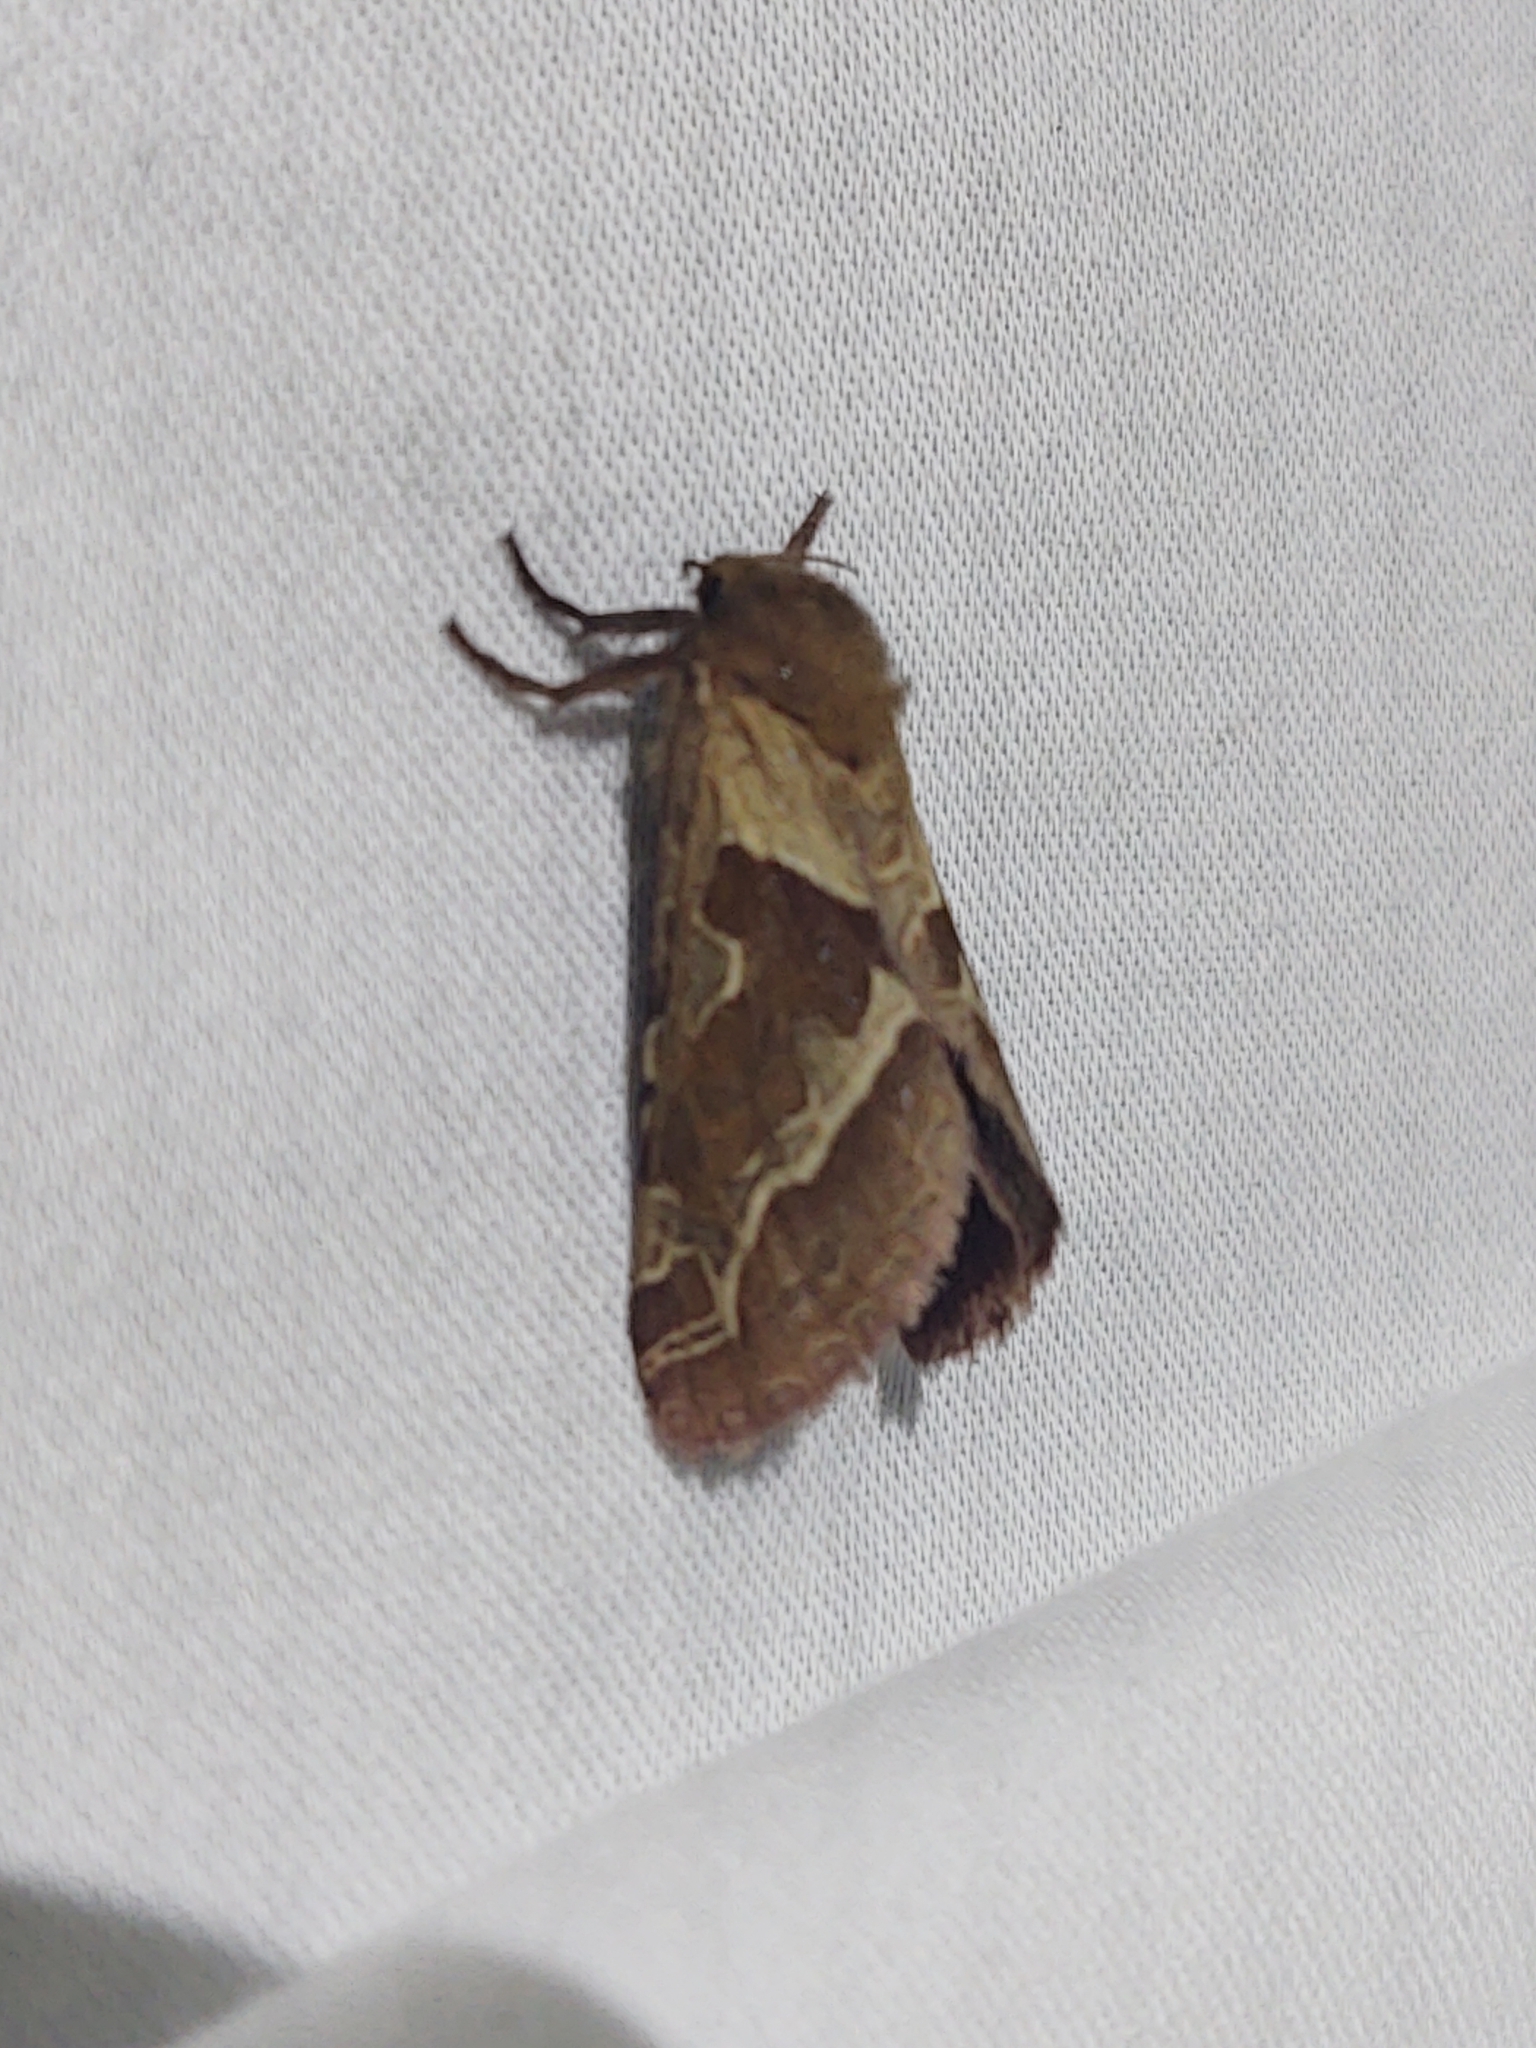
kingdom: Animalia
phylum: Arthropoda
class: Insecta
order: Lepidoptera
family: Hepialidae
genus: Triodia
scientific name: Triodia sylvina
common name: Orange swift
